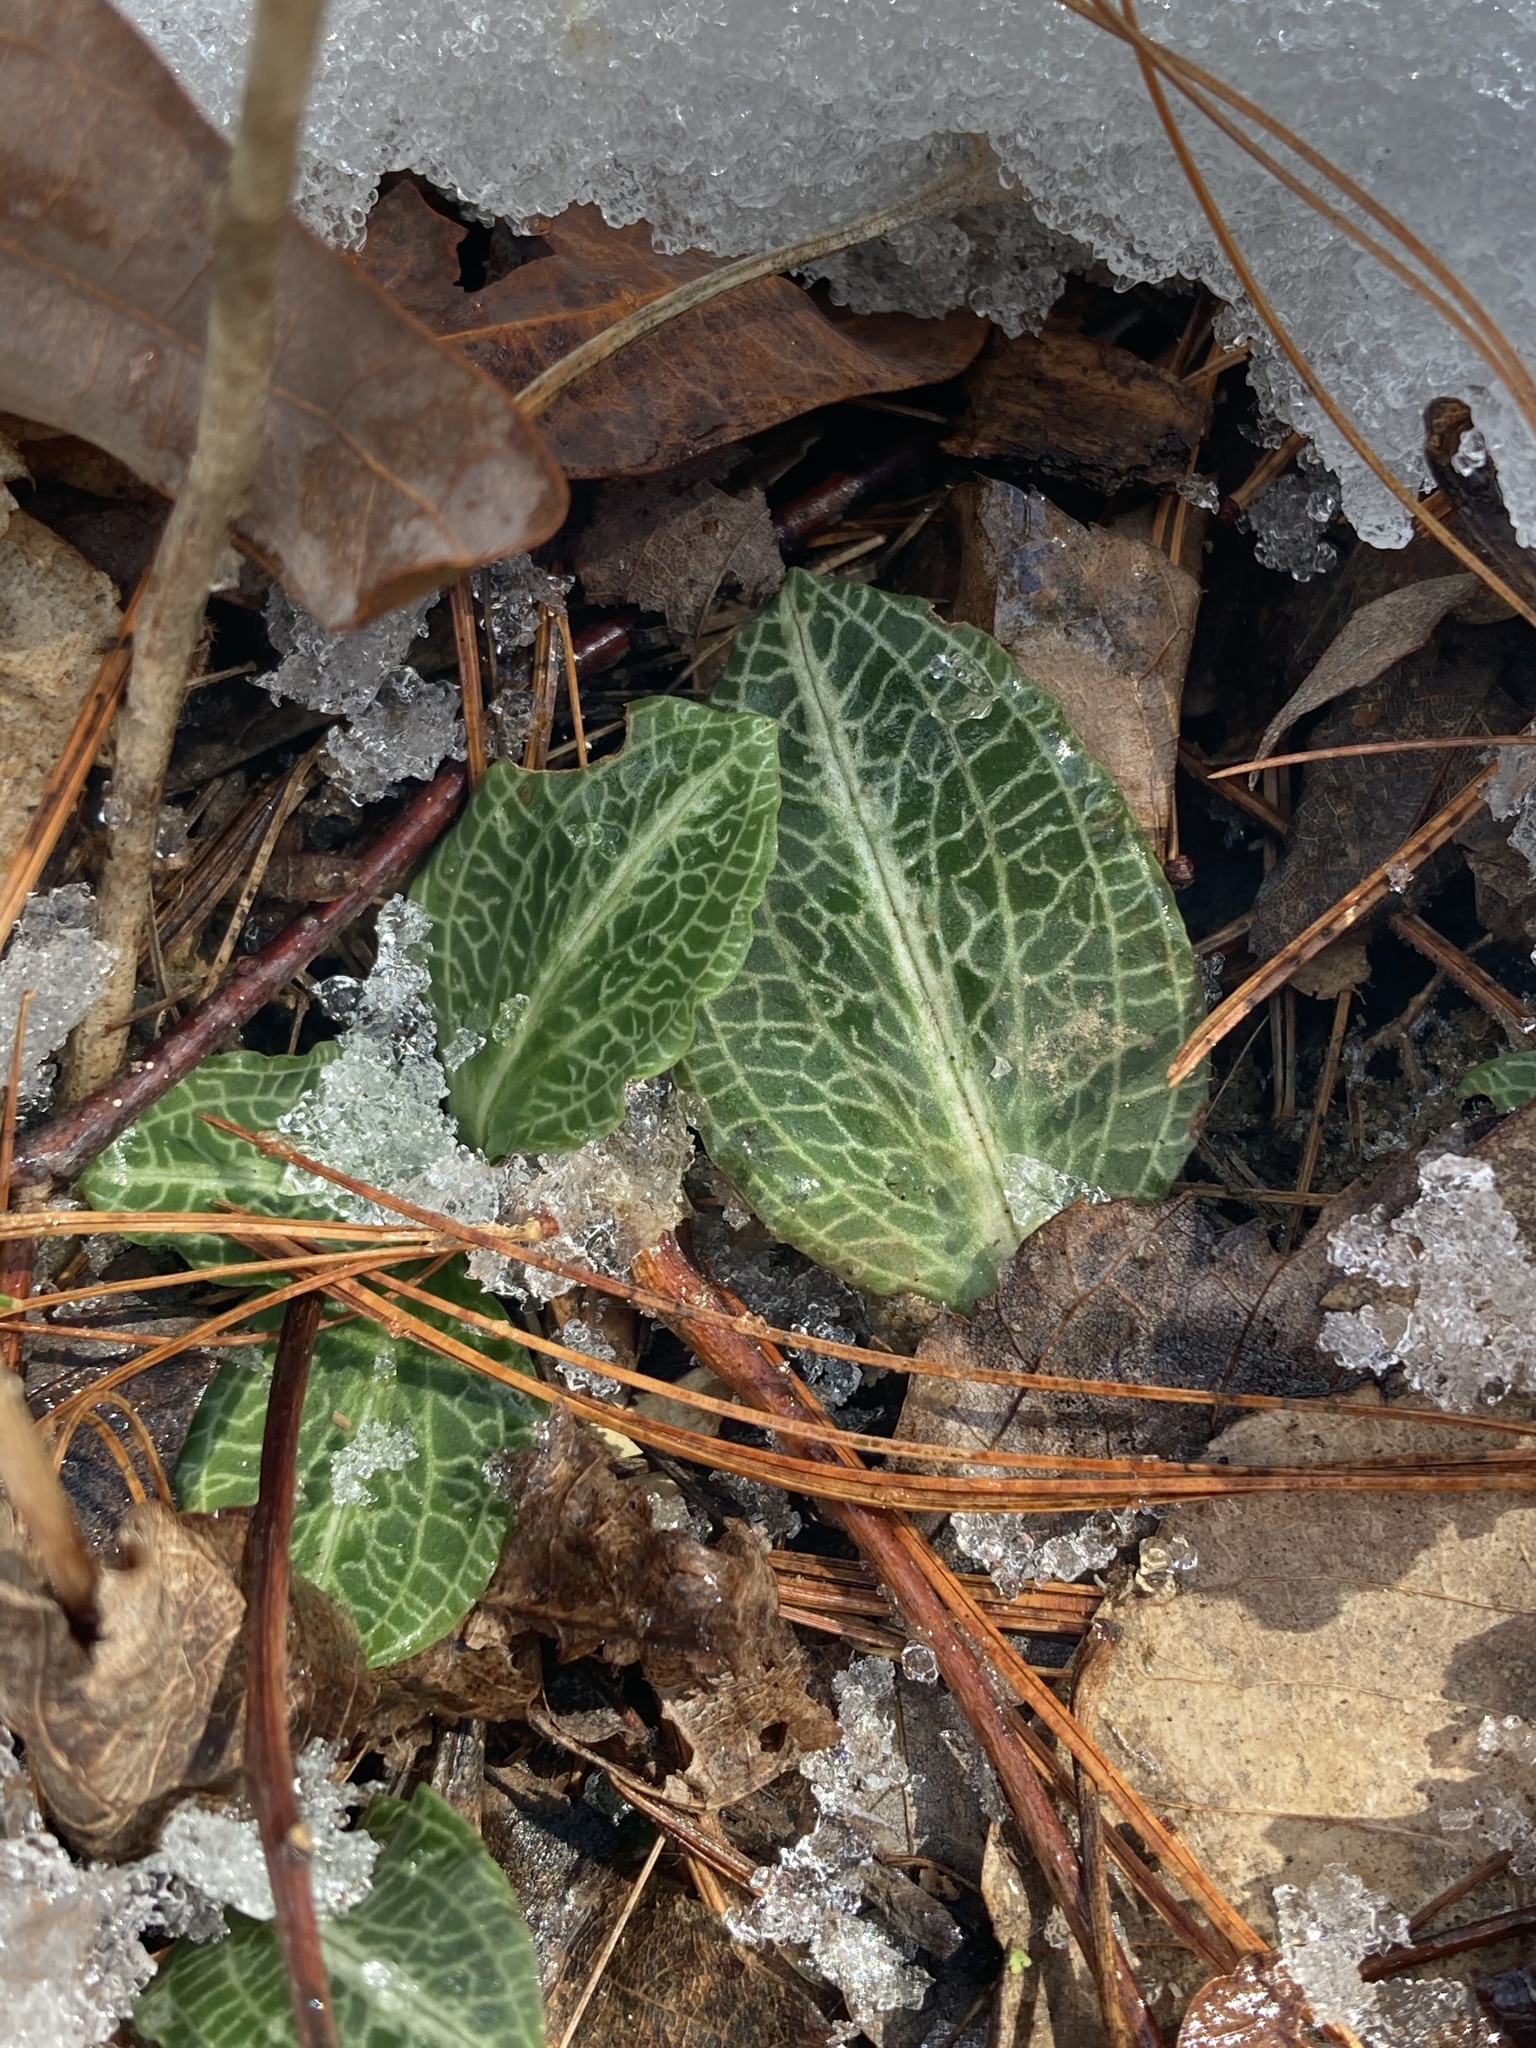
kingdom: Plantae
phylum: Tracheophyta
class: Liliopsida
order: Asparagales
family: Orchidaceae
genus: Goodyera
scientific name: Goodyera pubescens
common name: Downy rattlesnake-plantain
